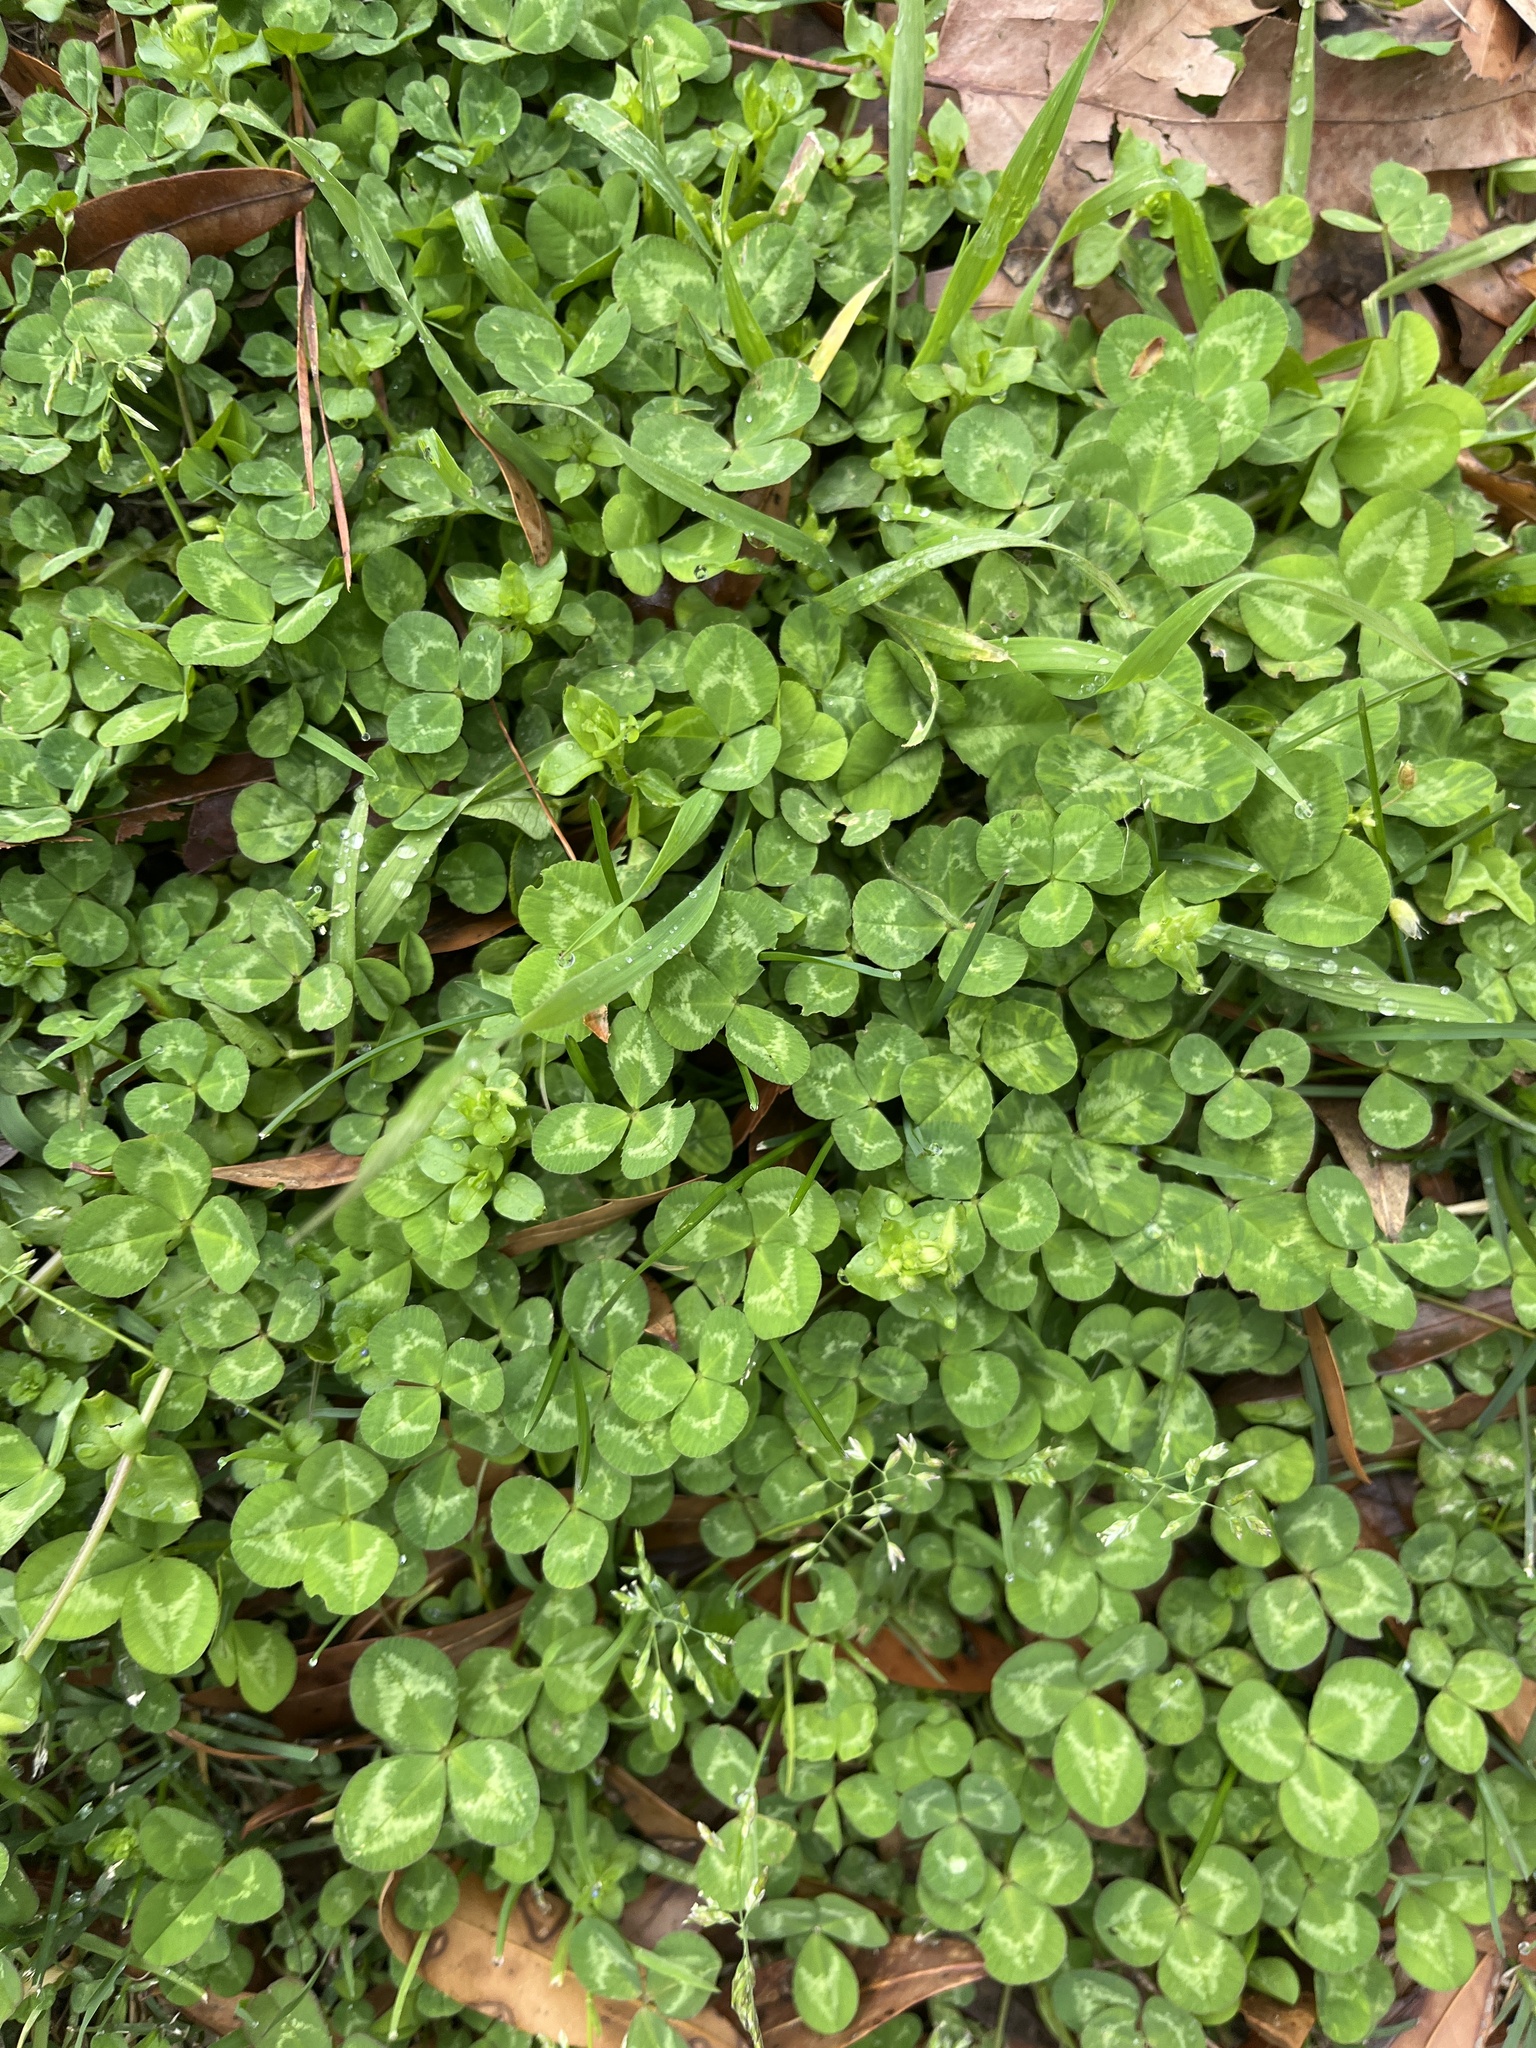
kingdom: Plantae
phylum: Tracheophyta
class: Magnoliopsida
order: Fabales
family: Fabaceae
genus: Trifolium
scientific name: Trifolium repens
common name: White clover
